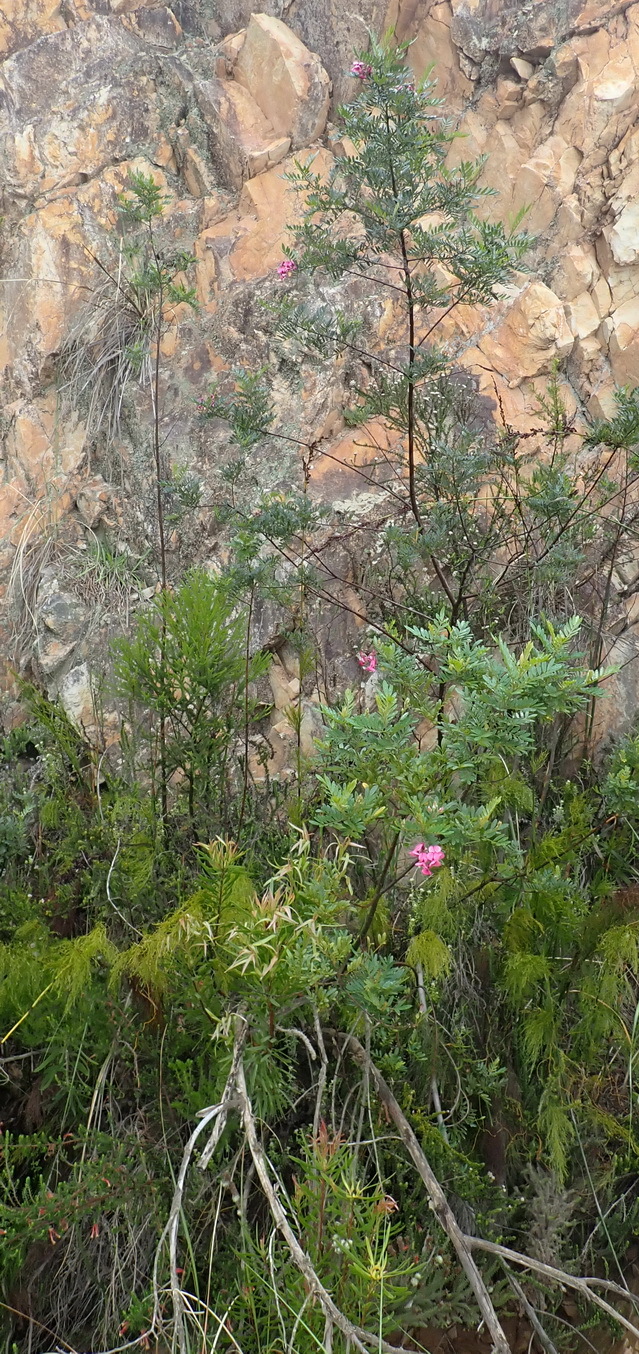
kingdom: Plantae
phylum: Tracheophyta
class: Magnoliopsida
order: Fabales
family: Fabaceae
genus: Virgilia
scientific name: Virgilia divaricata
